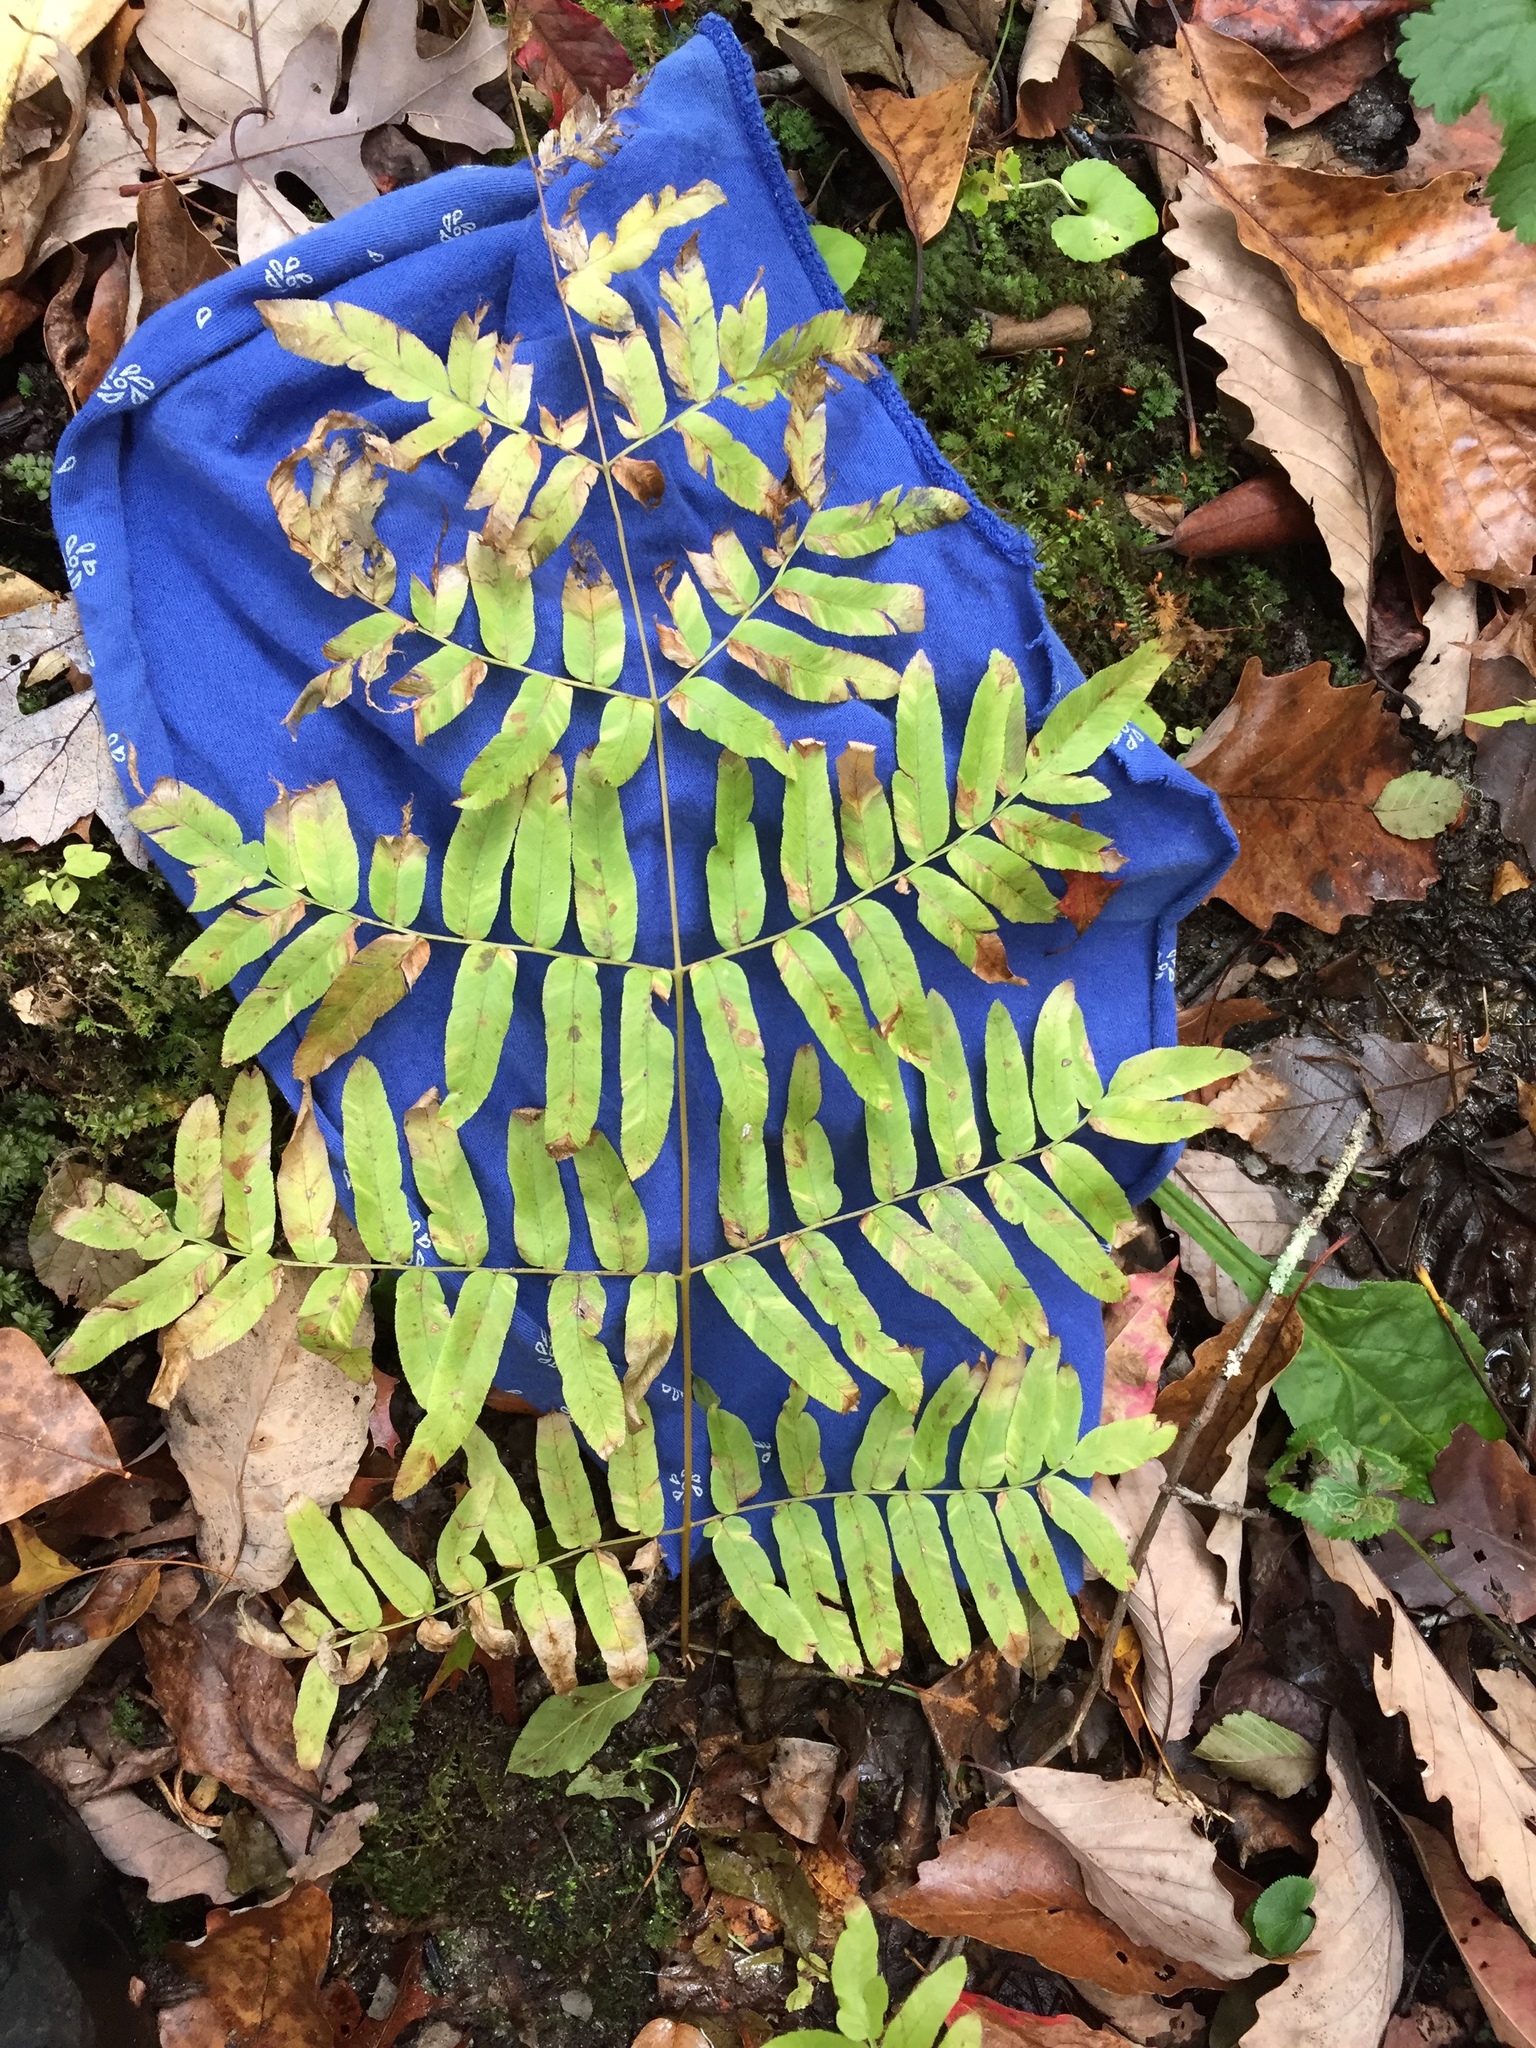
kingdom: Plantae
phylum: Tracheophyta
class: Polypodiopsida
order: Osmundales
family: Osmundaceae
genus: Osmunda
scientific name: Osmunda spectabilis
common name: American royal fern
